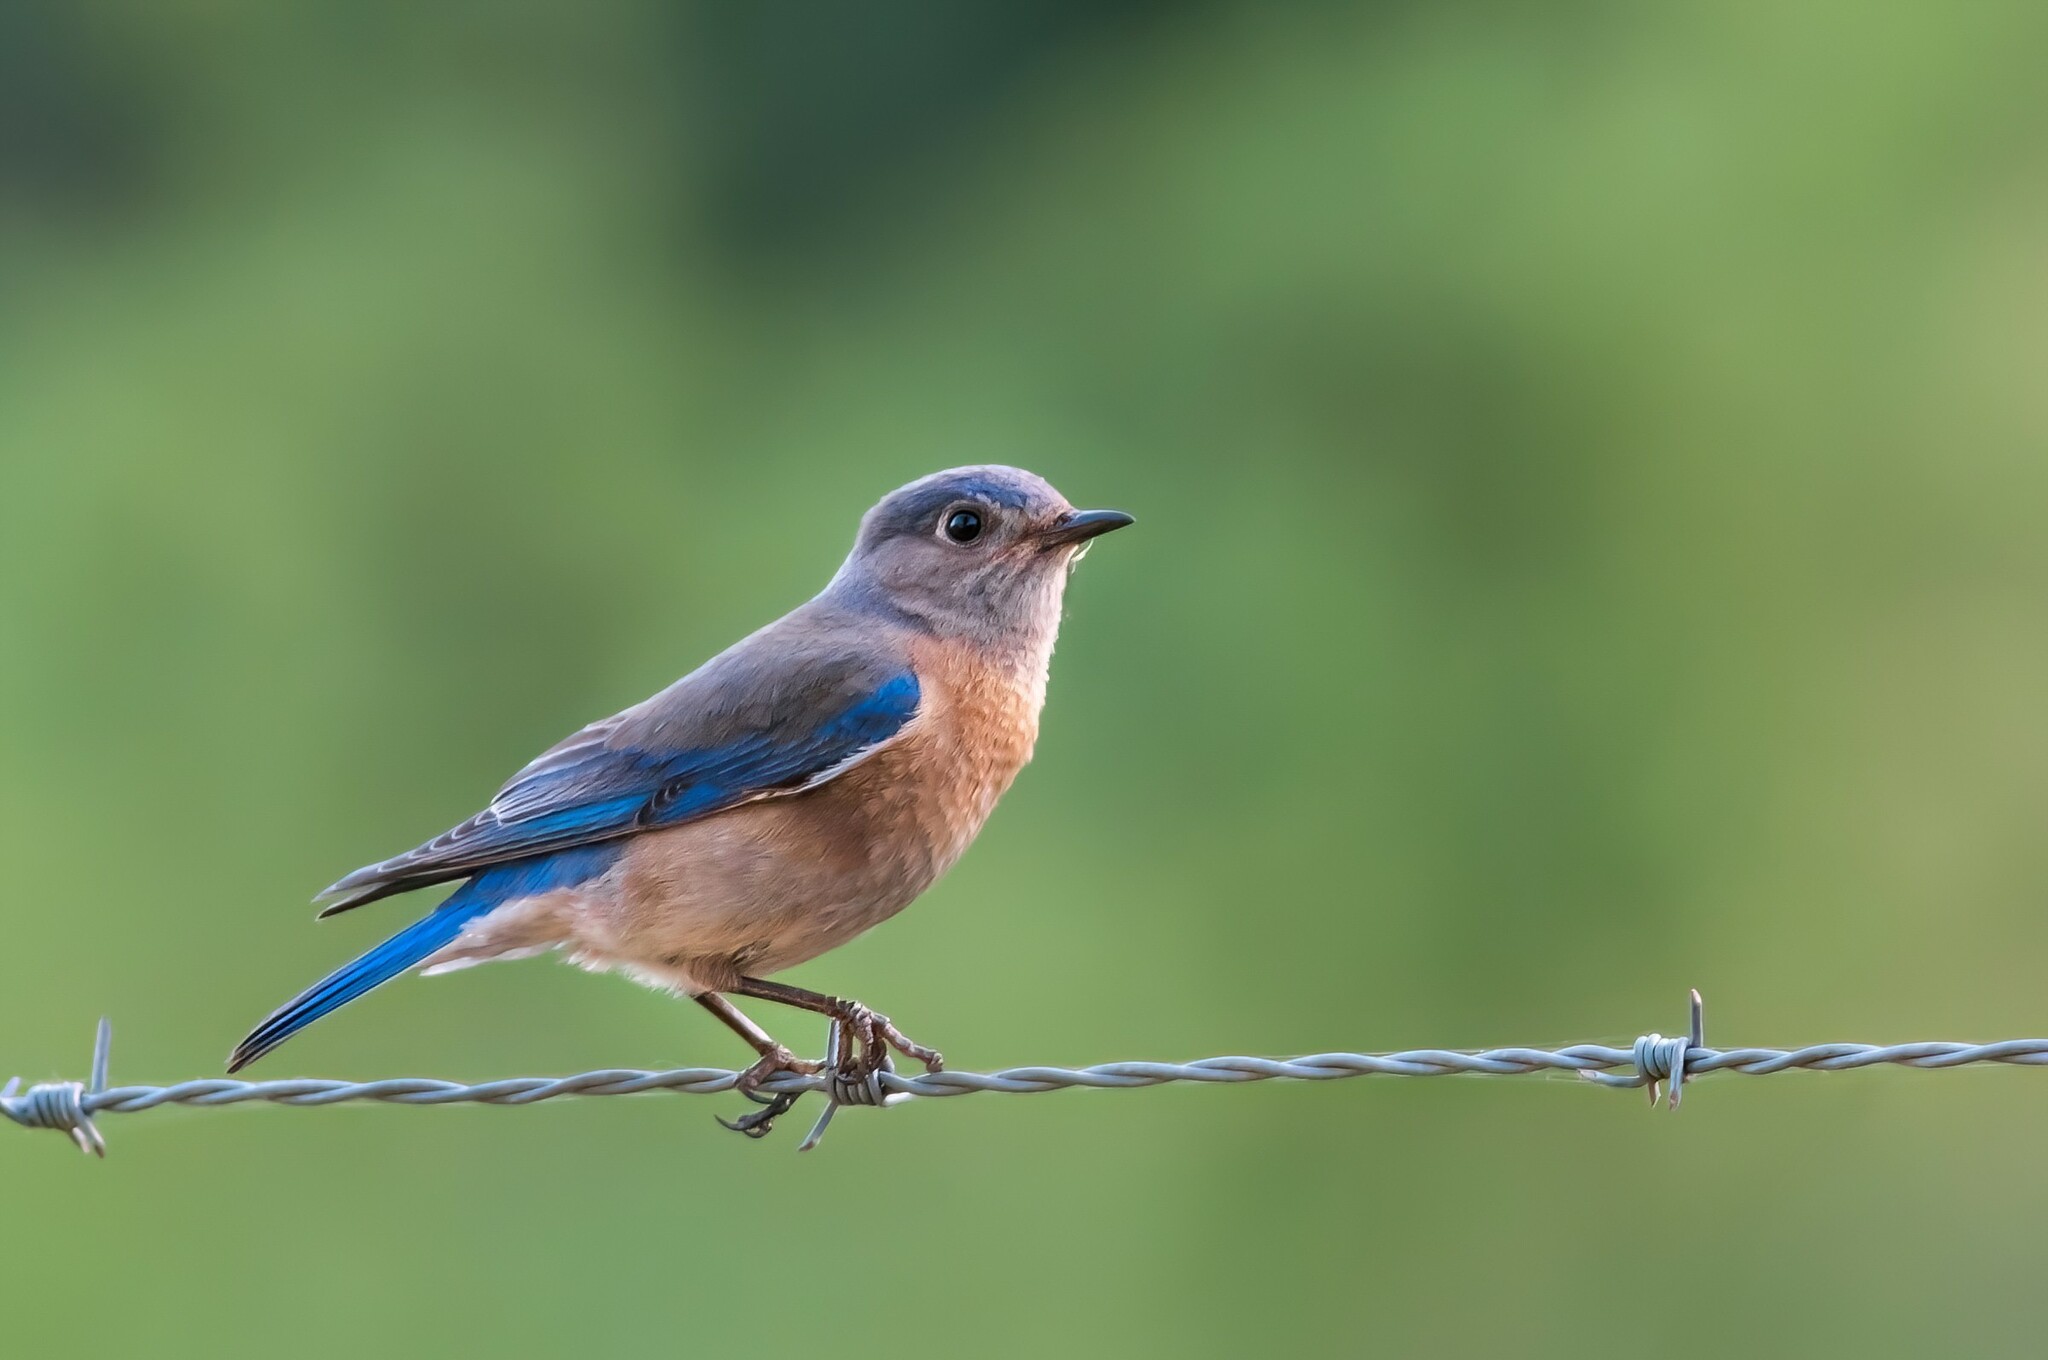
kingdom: Animalia
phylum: Chordata
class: Aves
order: Passeriformes
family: Turdidae
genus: Sialia
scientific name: Sialia mexicana
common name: Western bluebird
